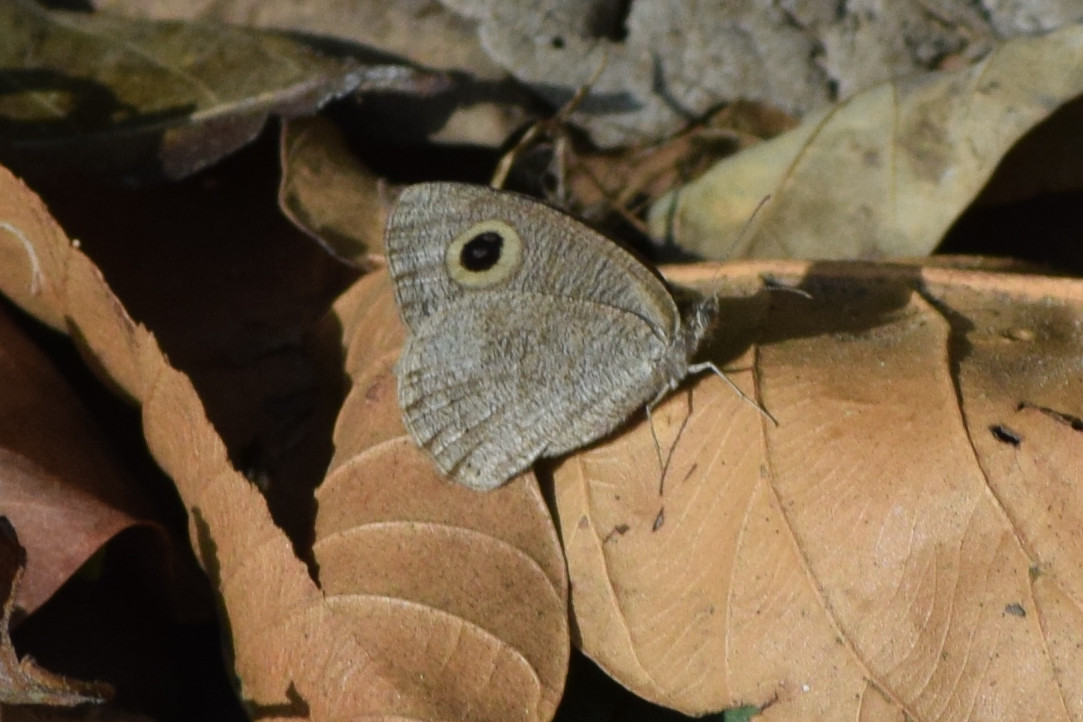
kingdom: Animalia
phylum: Arthropoda
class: Insecta
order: Lepidoptera
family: Nymphalidae
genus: Ypthima
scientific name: Ypthima baldus
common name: Common five-ring
